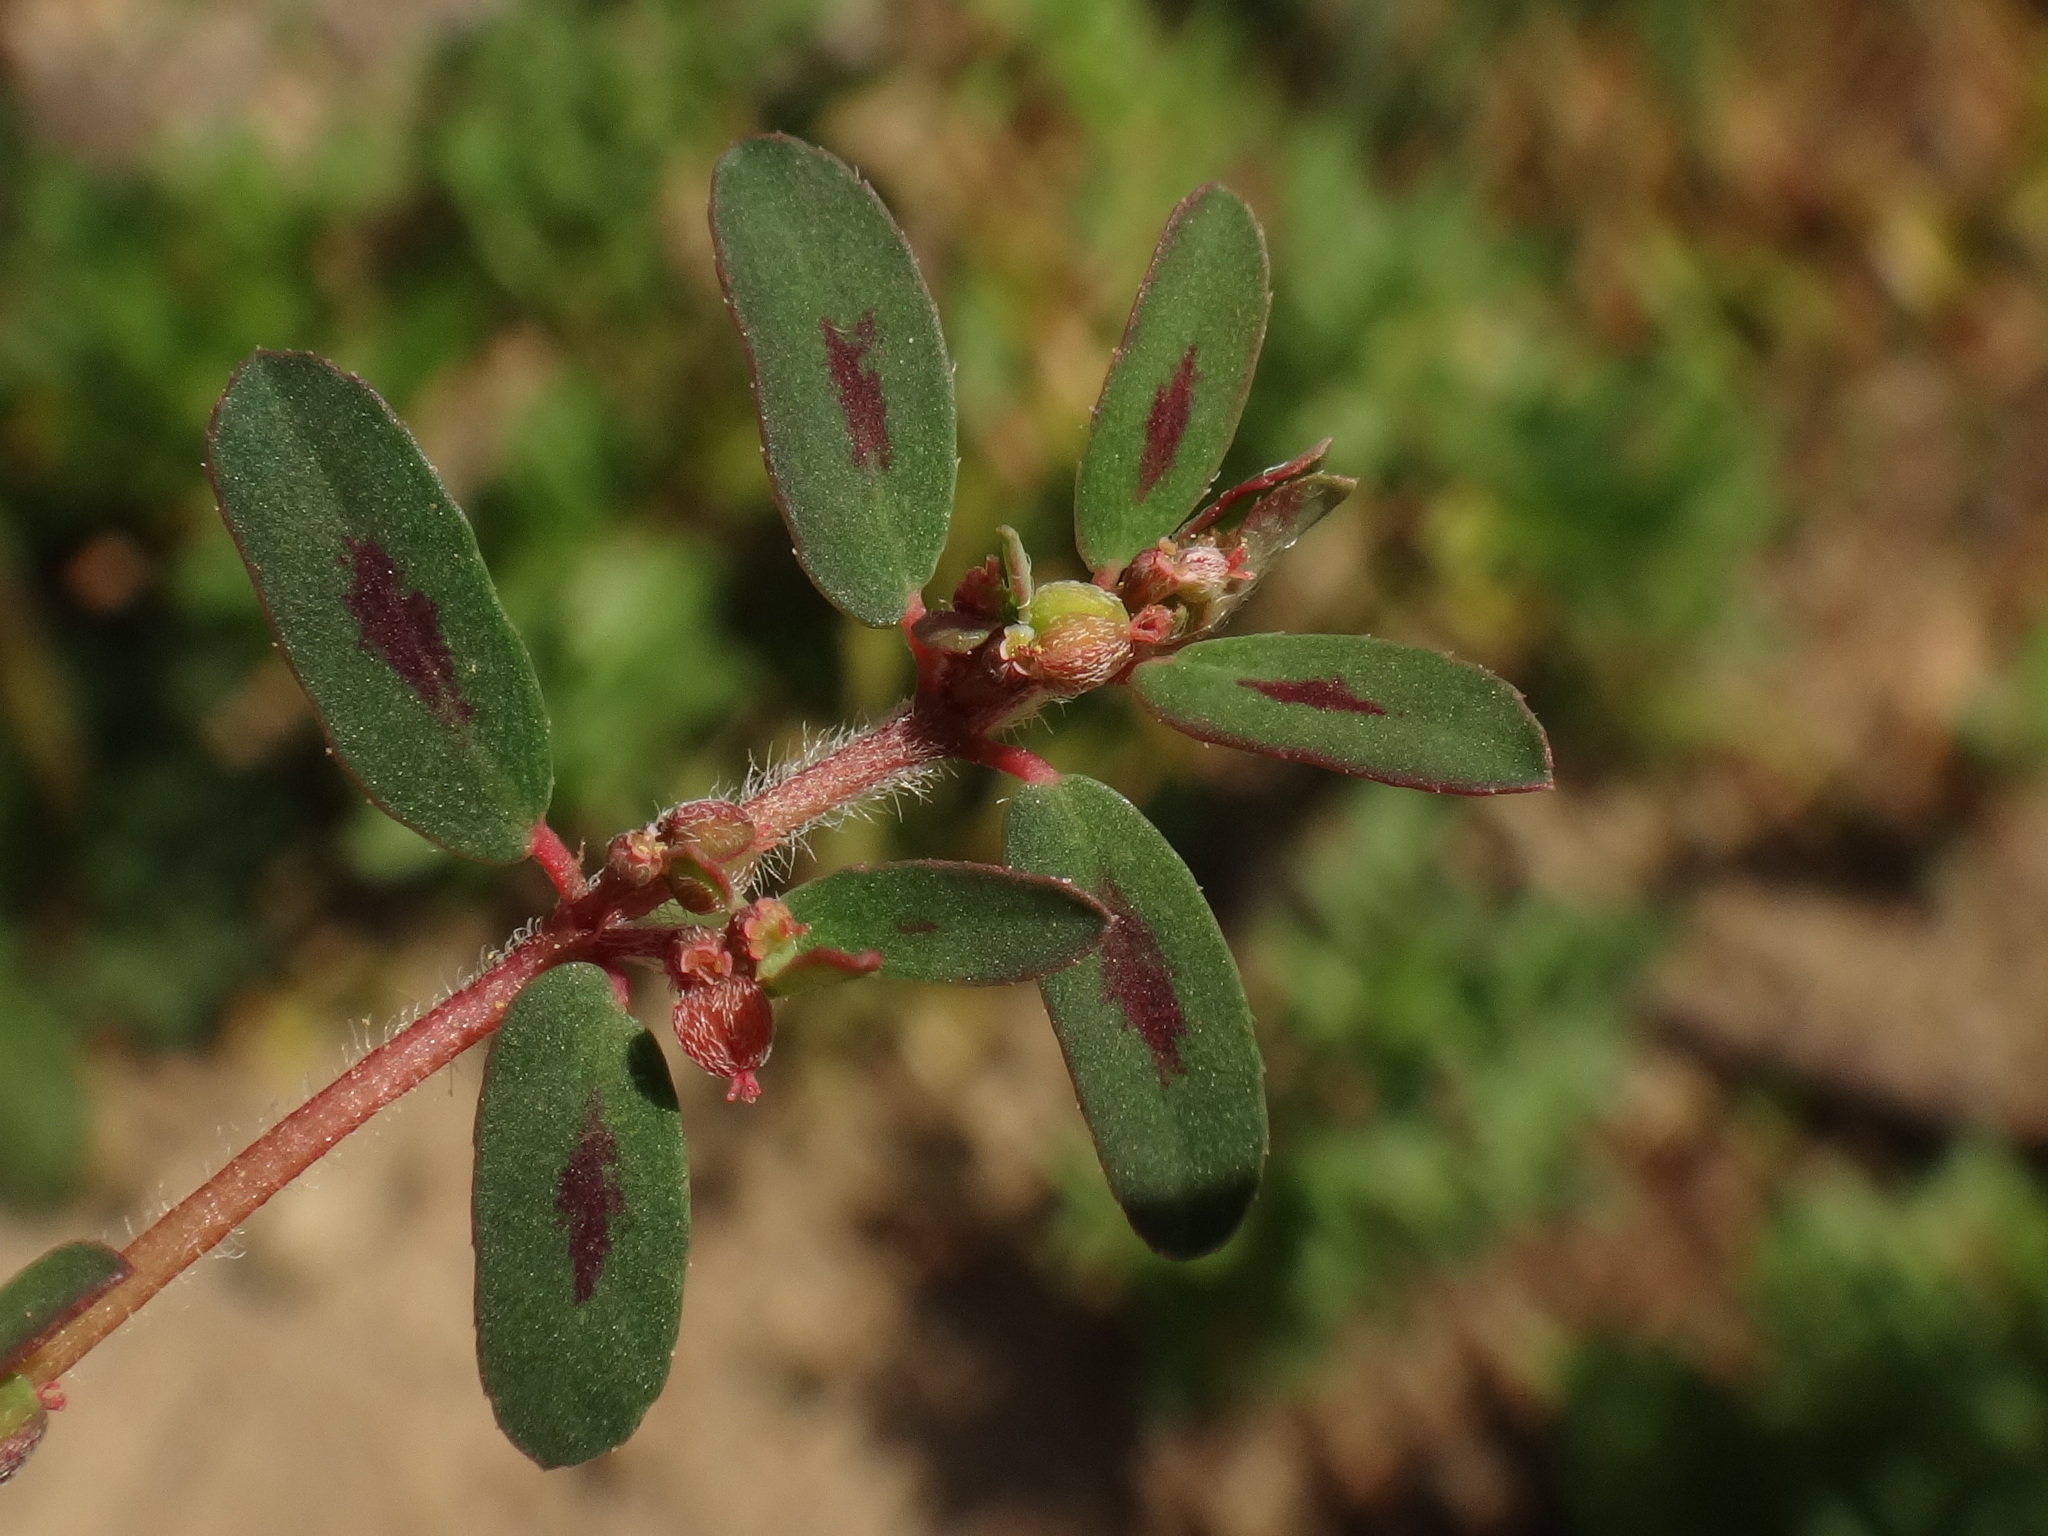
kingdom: Plantae
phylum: Tracheophyta
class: Magnoliopsida
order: Malpighiales
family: Euphorbiaceae
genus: Euphorbia
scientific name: Euphorbia maculata
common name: Spotted spurge
